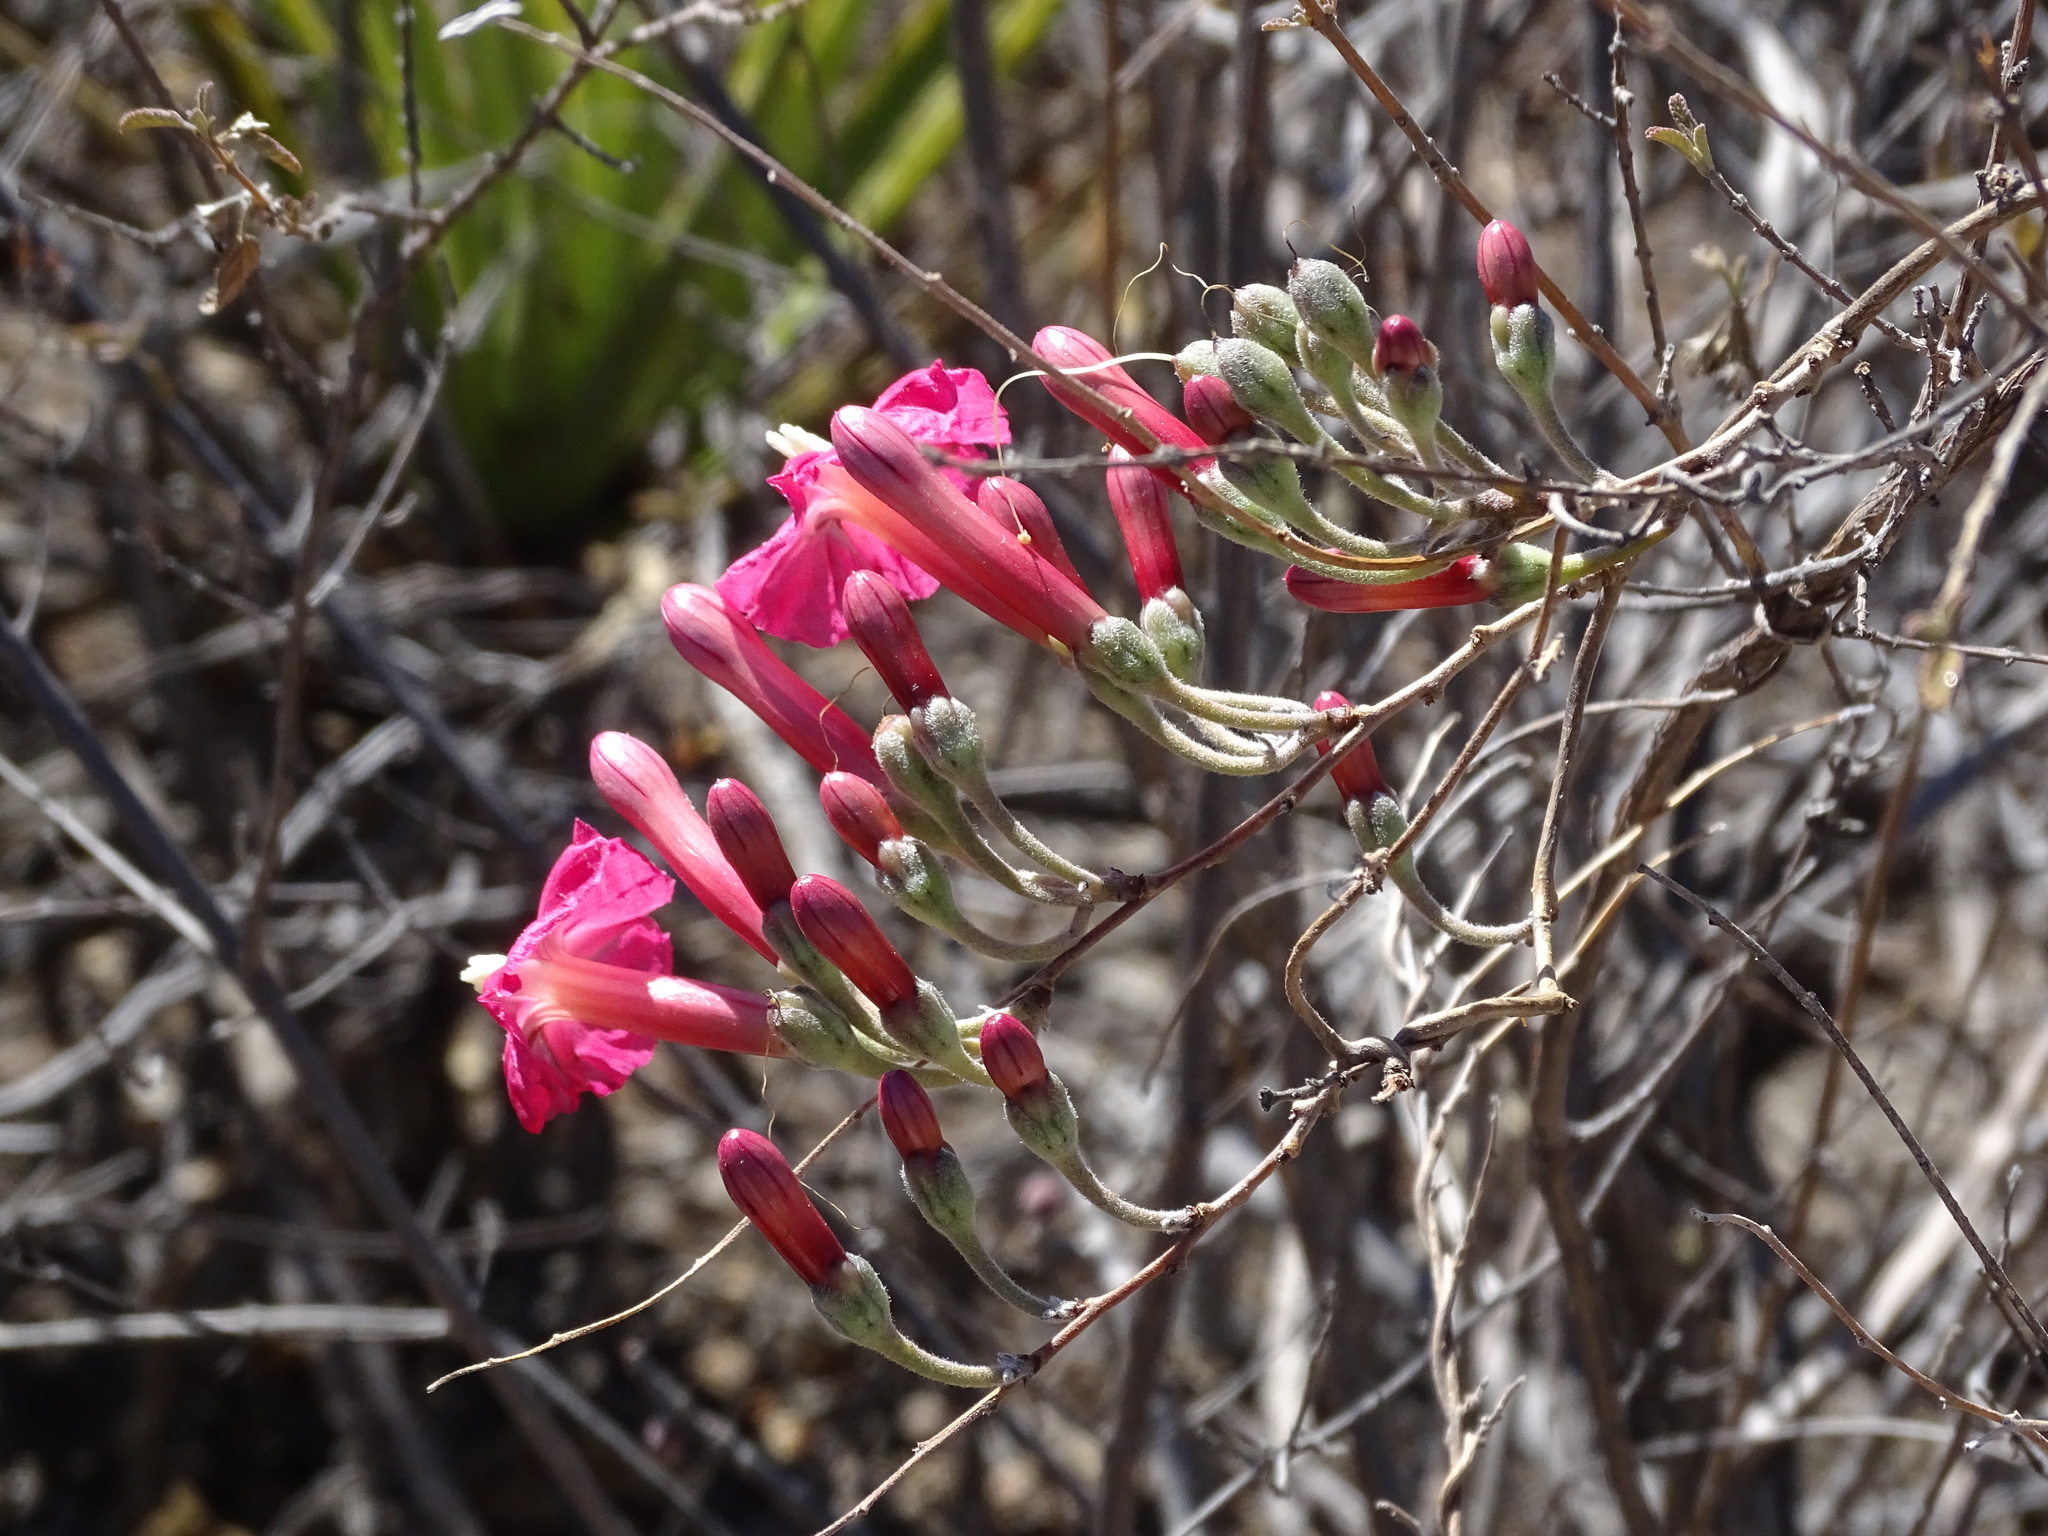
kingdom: Plantae
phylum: Tracheophyta
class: Magnoliopsida
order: Solanales
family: Convolvulaceae
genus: Ipomoea
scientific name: Ipomoea conzattii
